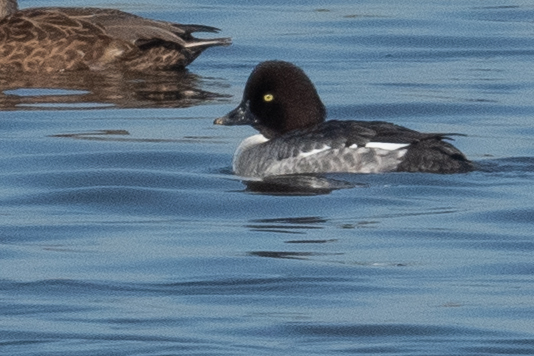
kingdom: Animalia
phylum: Chordata
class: Aves
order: Anseriformes
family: Anatidae
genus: Bucephala
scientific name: Bucephala clangula
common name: Common goldeneye
